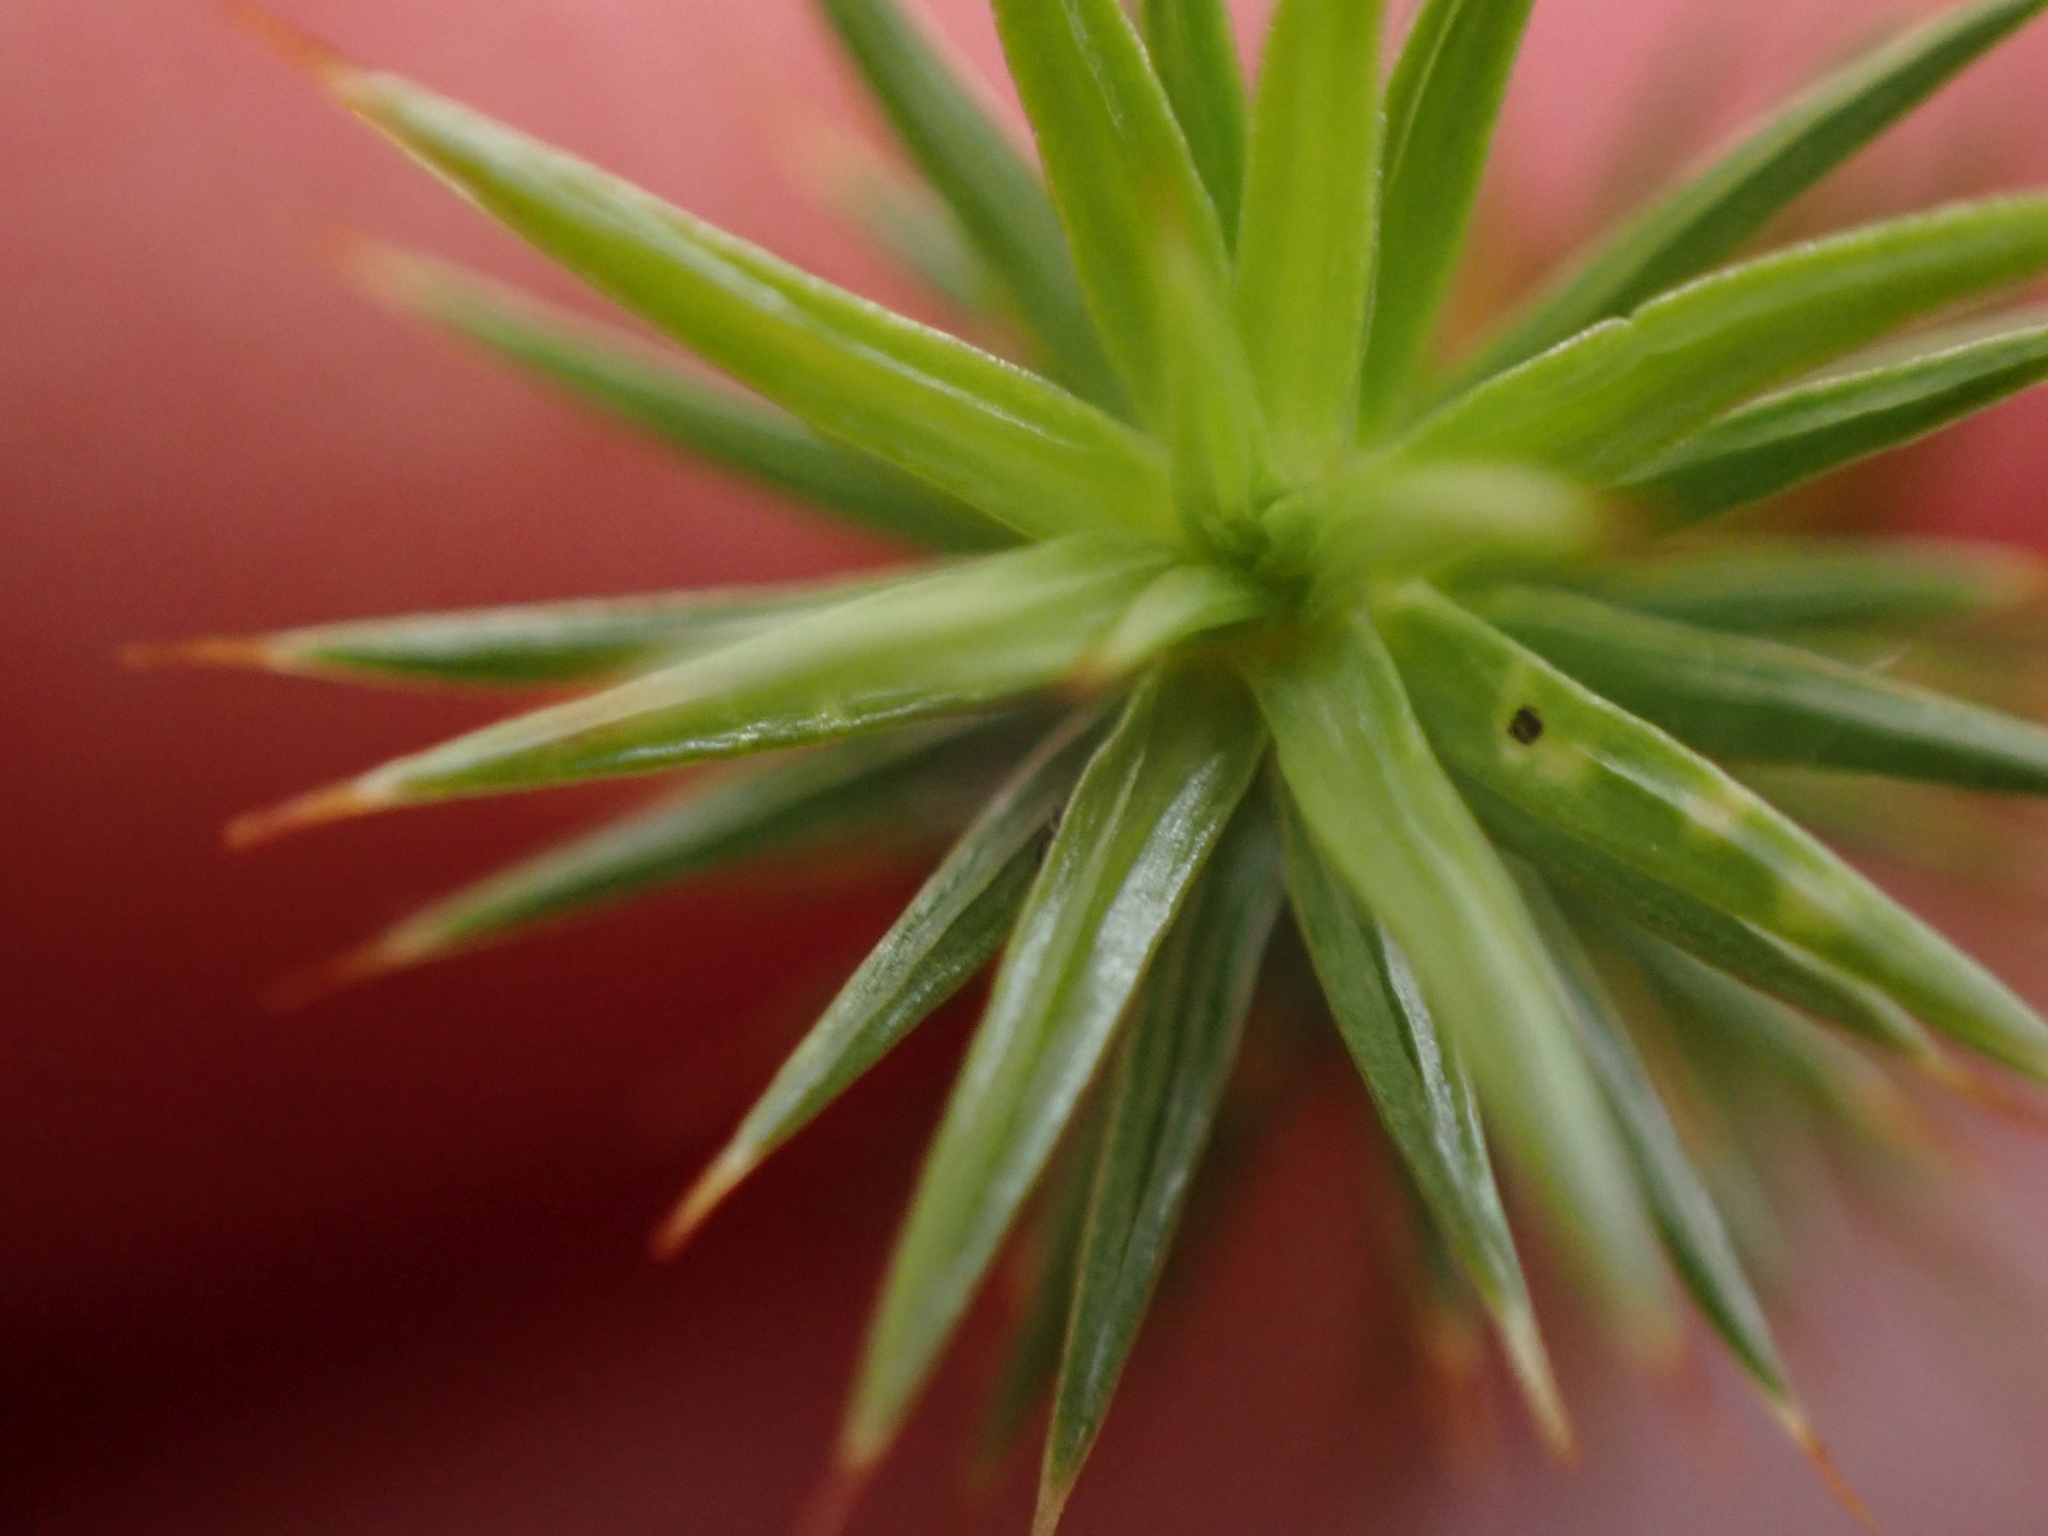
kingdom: Plantae
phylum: Bryophyta
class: Polytrichopsida
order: Polytrichales
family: Polytrichaceae
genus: Polytrichum
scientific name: Polytrichum juniperinum
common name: Juniper haircap moss
